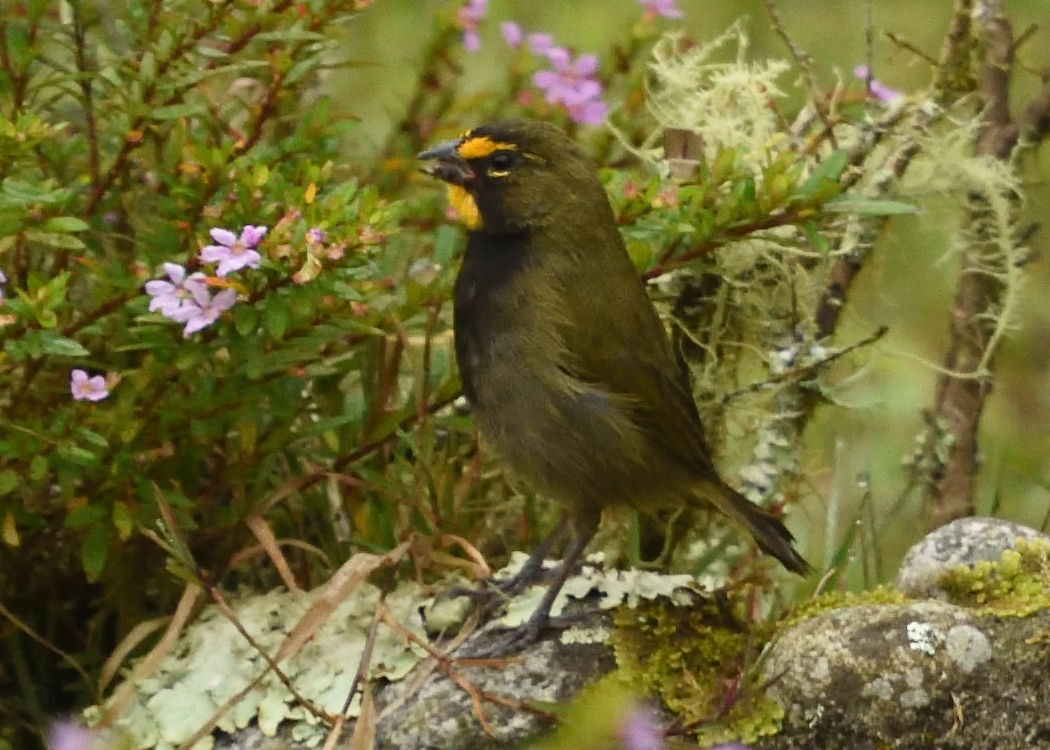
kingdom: Animalia
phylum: Chordata
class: Aves
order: Passeriformes
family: Thraupidae
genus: Tiaris
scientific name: Tiaris olivaceus
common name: Yellow-faced grassquit
